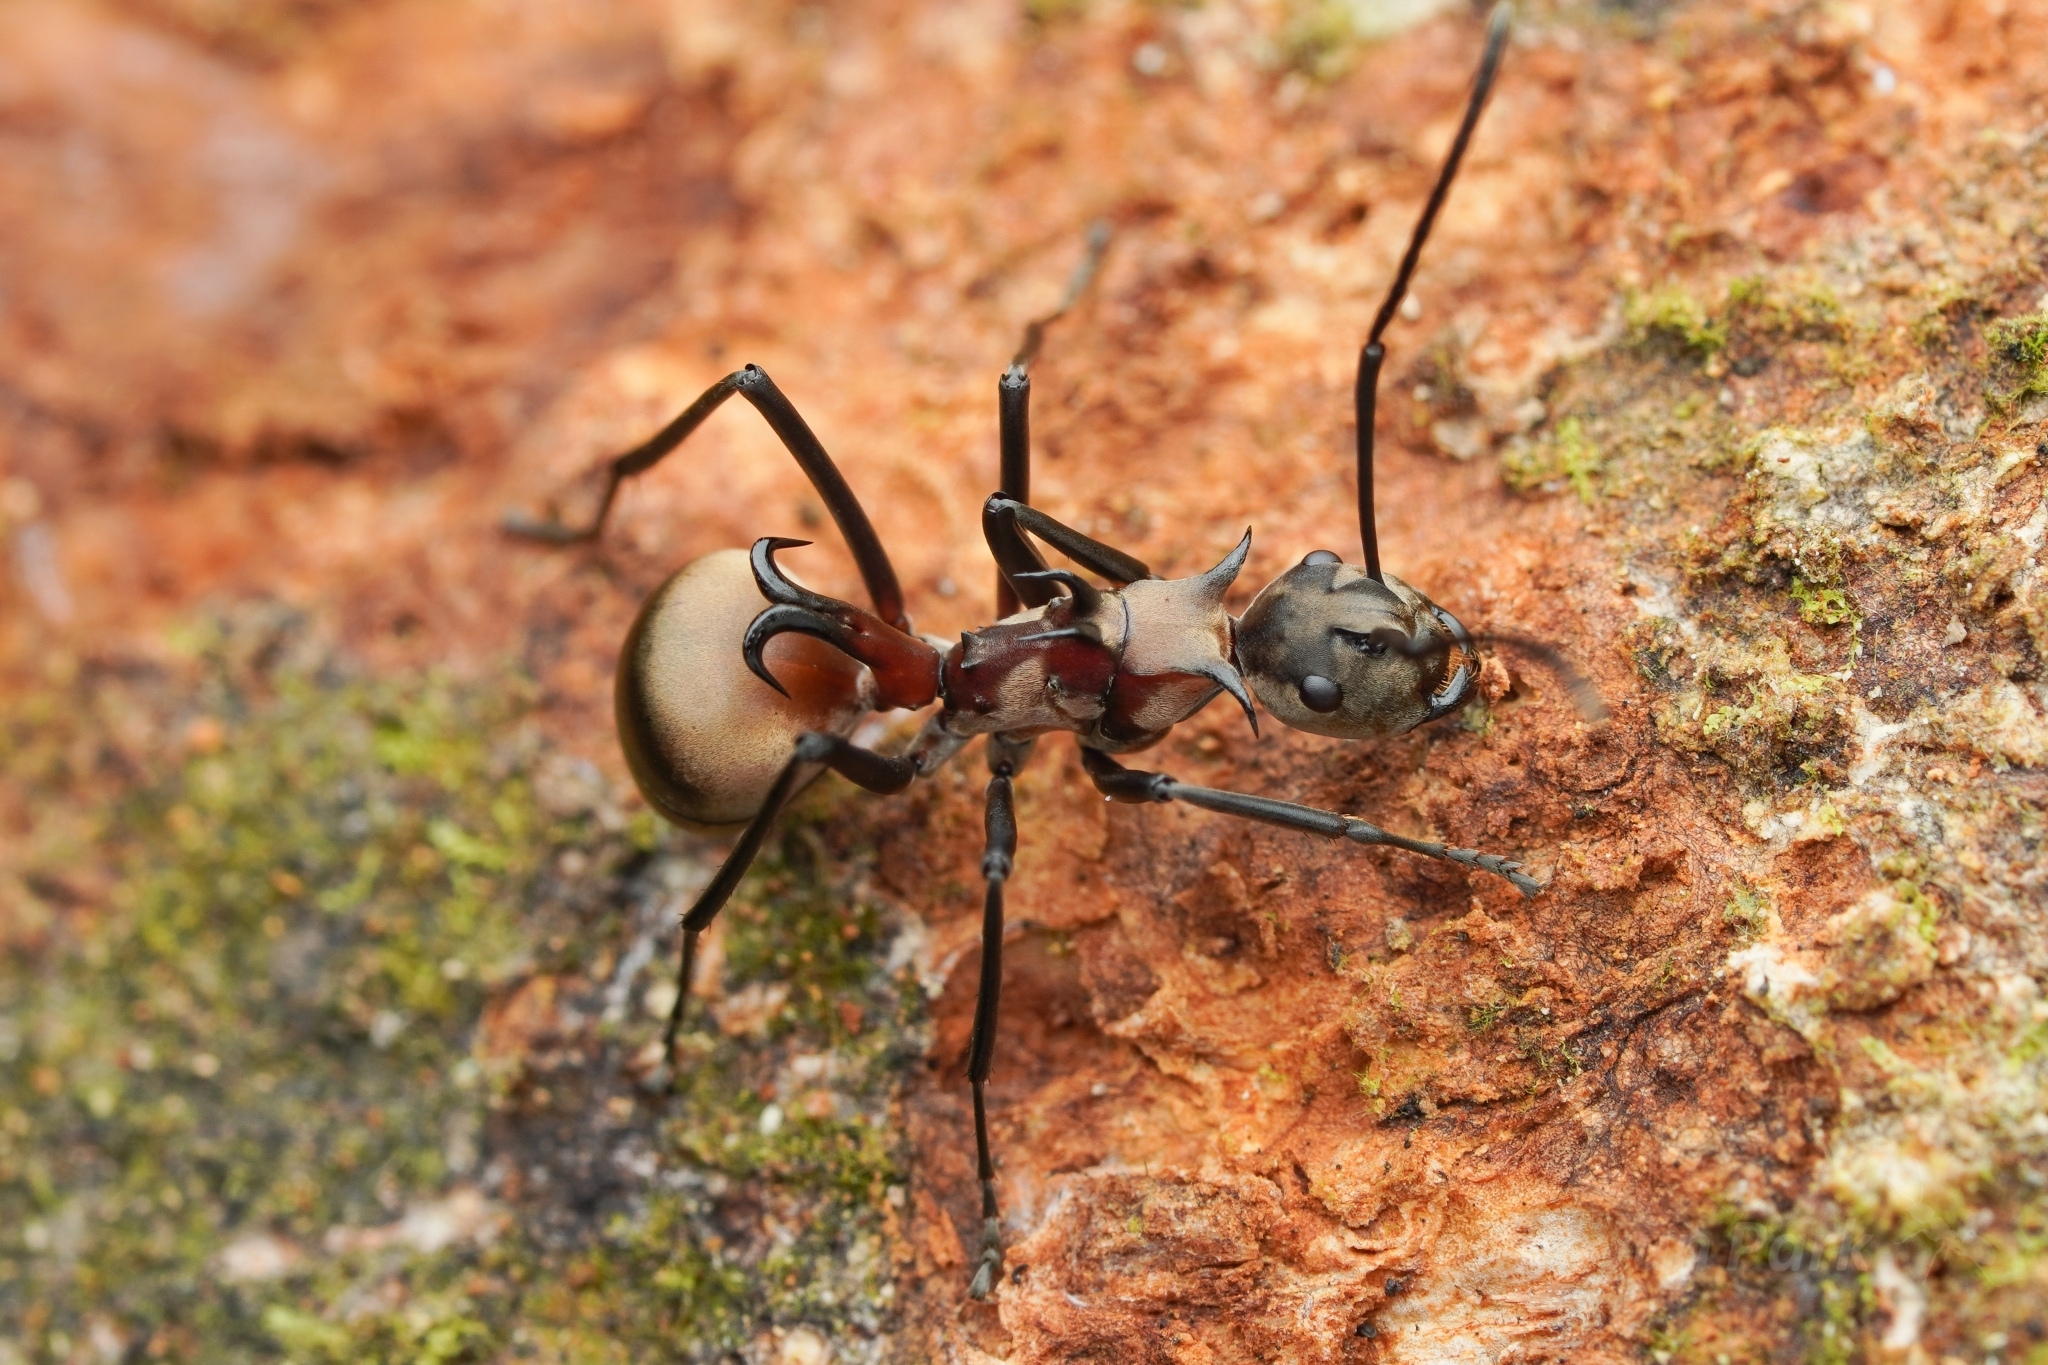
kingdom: Animalia
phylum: Arthropoda
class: Insecta
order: Hymenoptera
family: Formicidae
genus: Polyrhachis
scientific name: Polyrhachis olybria
